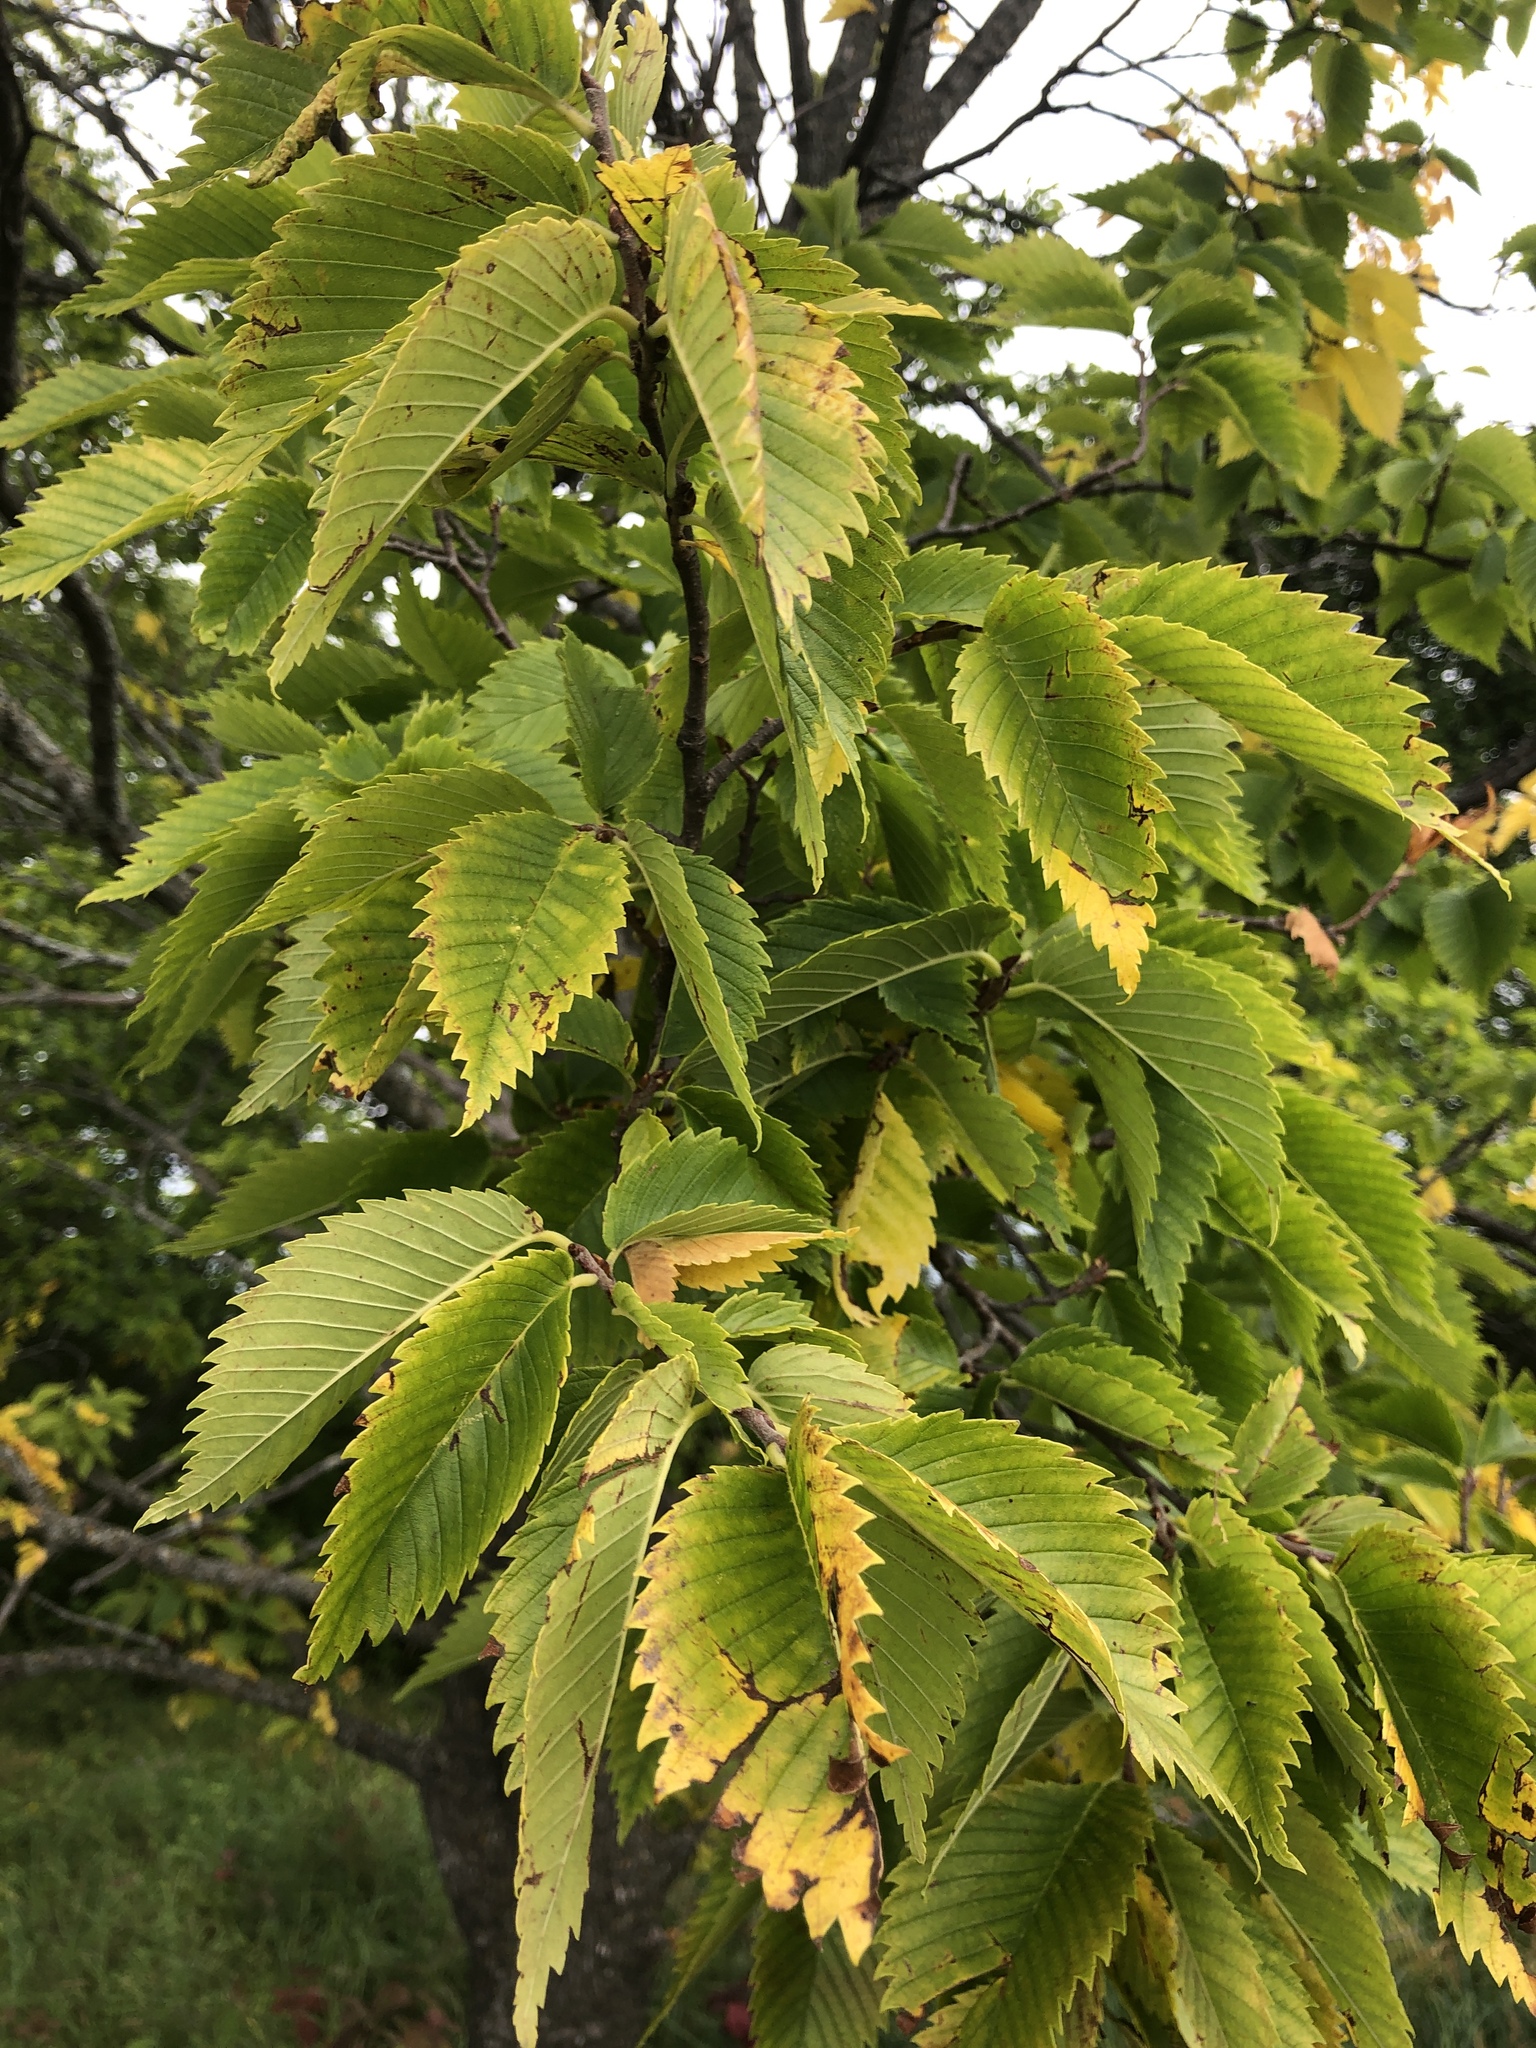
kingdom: Plantae
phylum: Tracheophyta
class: Magnoliopsida
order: Rosales
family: Ulmaceae
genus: Ulmus
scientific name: Ulmus americana
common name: American elm
